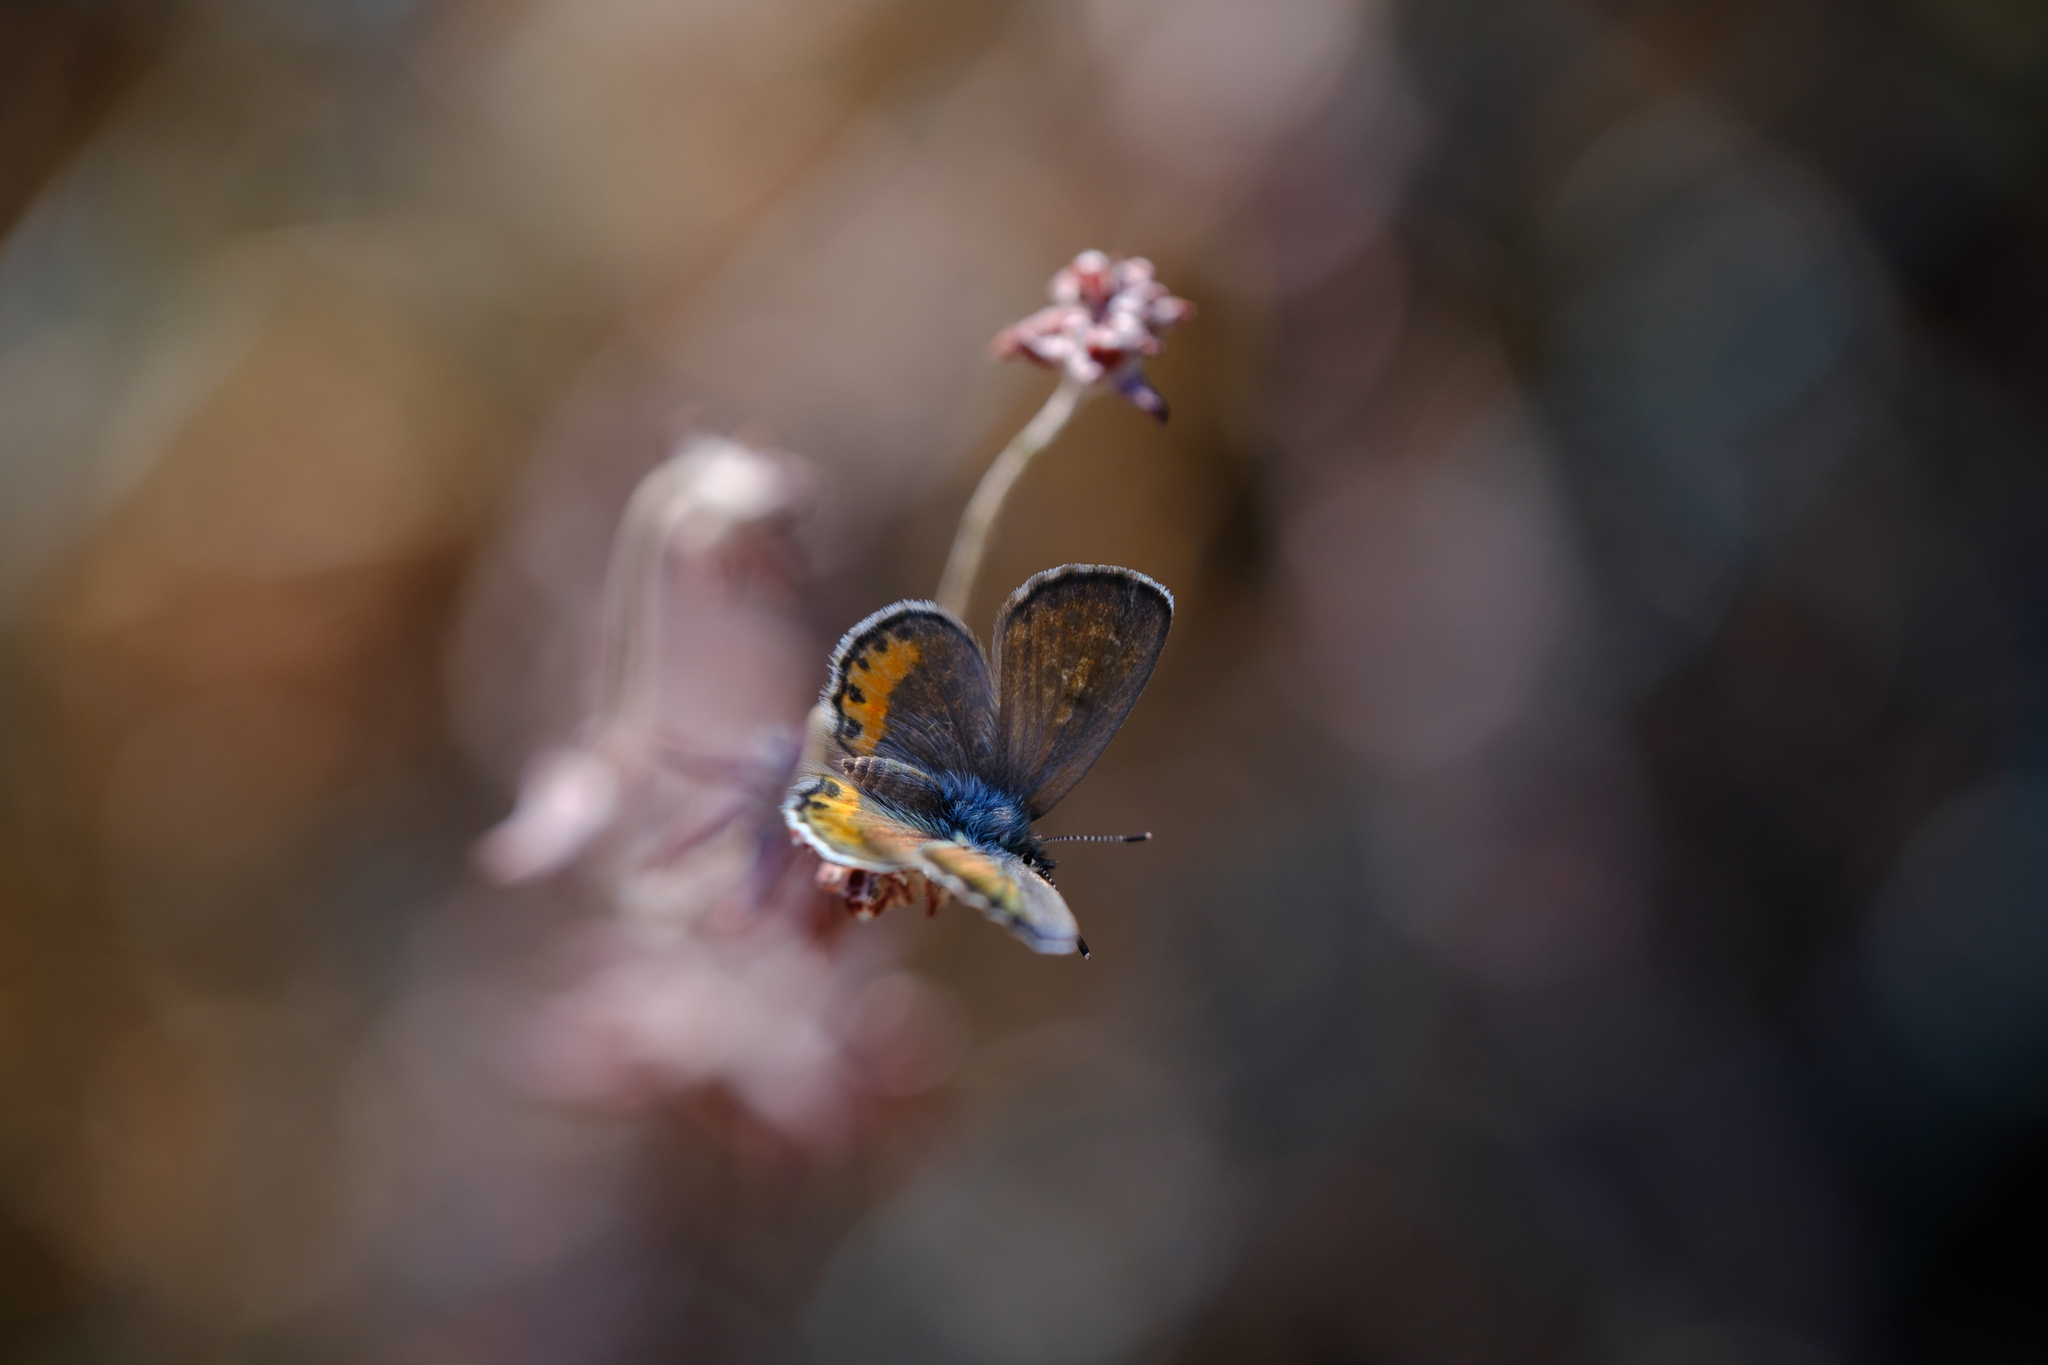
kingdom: Animalia
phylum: Arthropoda
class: Insecta
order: Lepidoptera
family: Lycaenidae
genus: Euphilotes
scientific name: Euphilotes battoides
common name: Square-spotted blue
